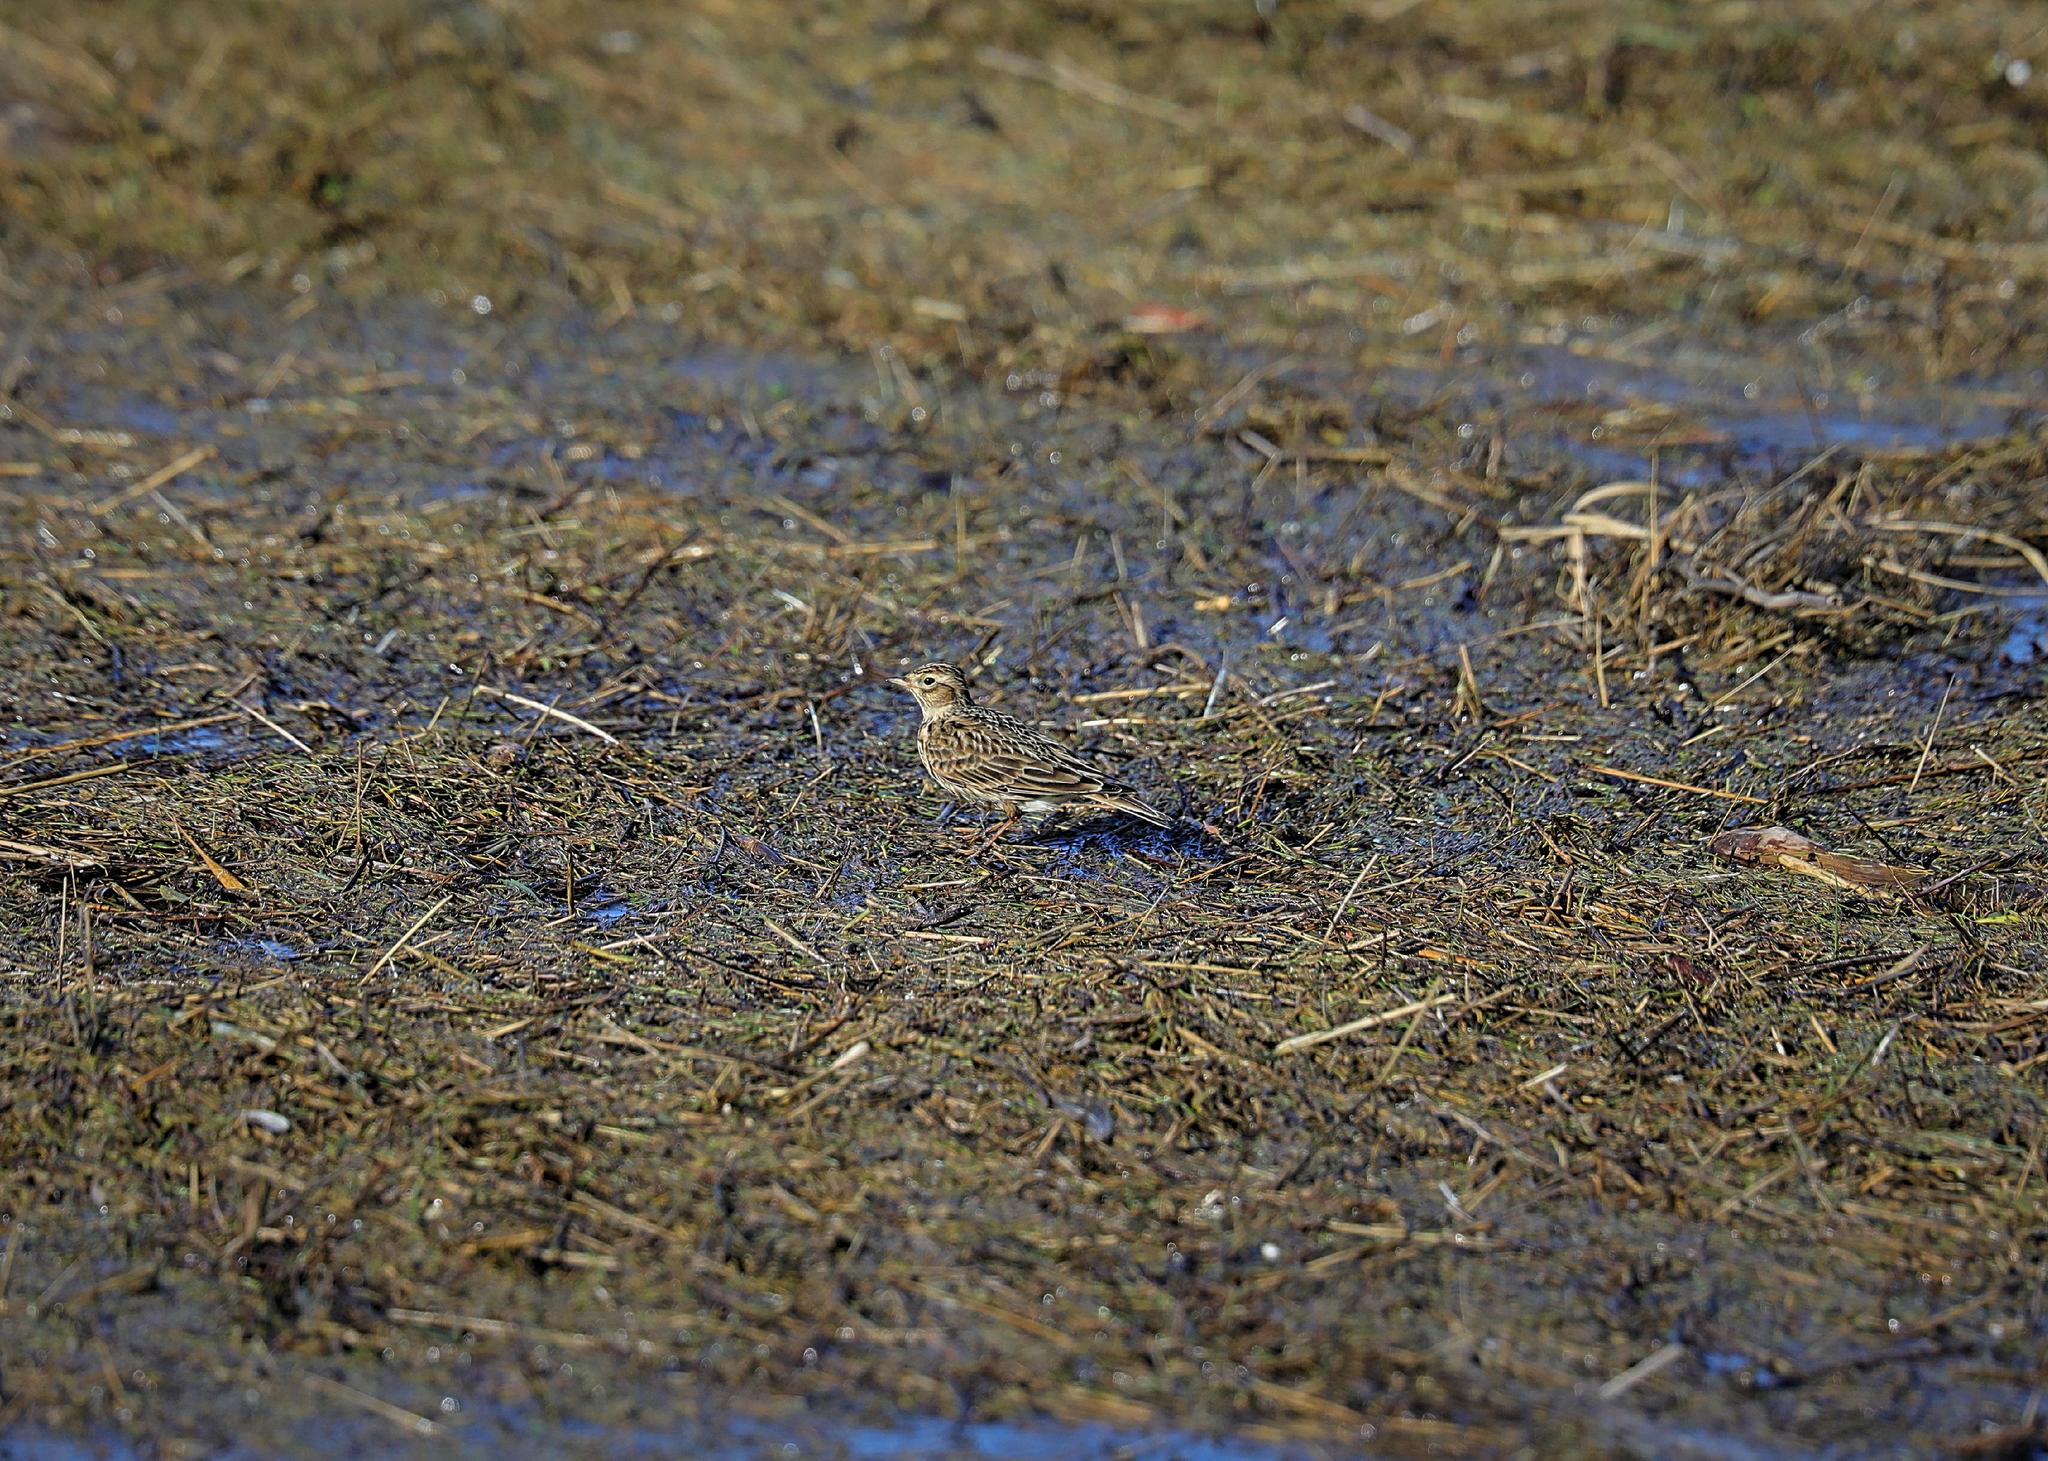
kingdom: Animalia
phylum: Chordata
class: Aves
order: Passeriformes
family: Alaudidae
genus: Alauda
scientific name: Alauda arvensis
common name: Eurasian skylark
